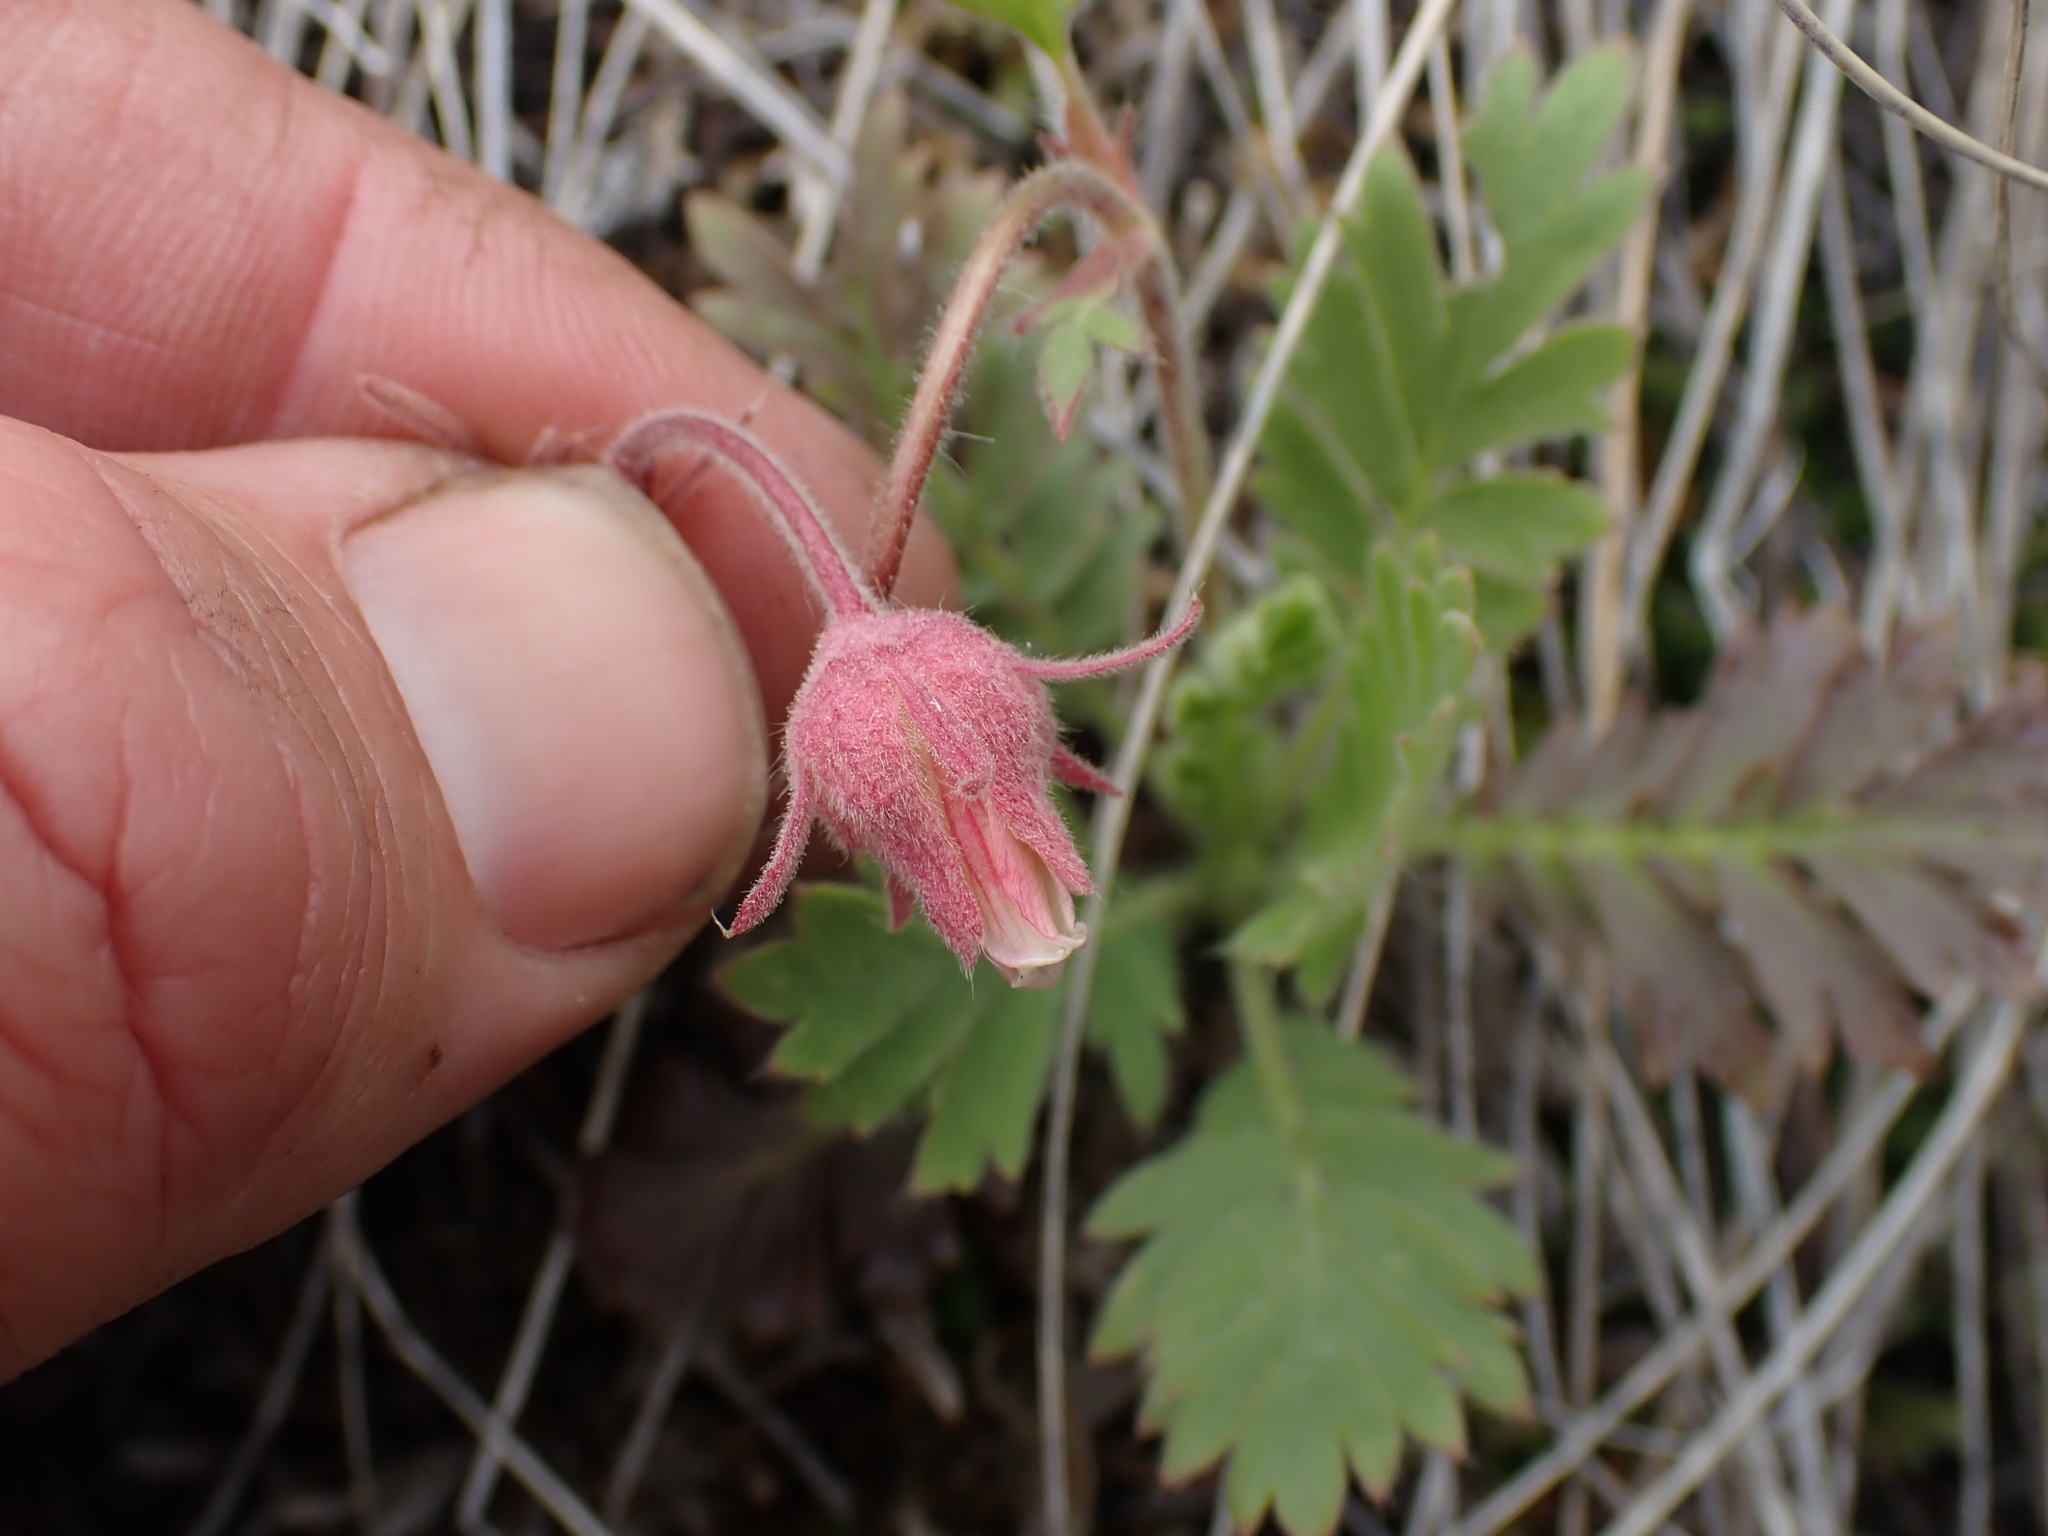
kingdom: Plantae
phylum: Tracheophyta
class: Magnoliopsida
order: Rosales
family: Rosaceae
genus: Geum
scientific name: Geum triflorum
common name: Old man's whiskers
